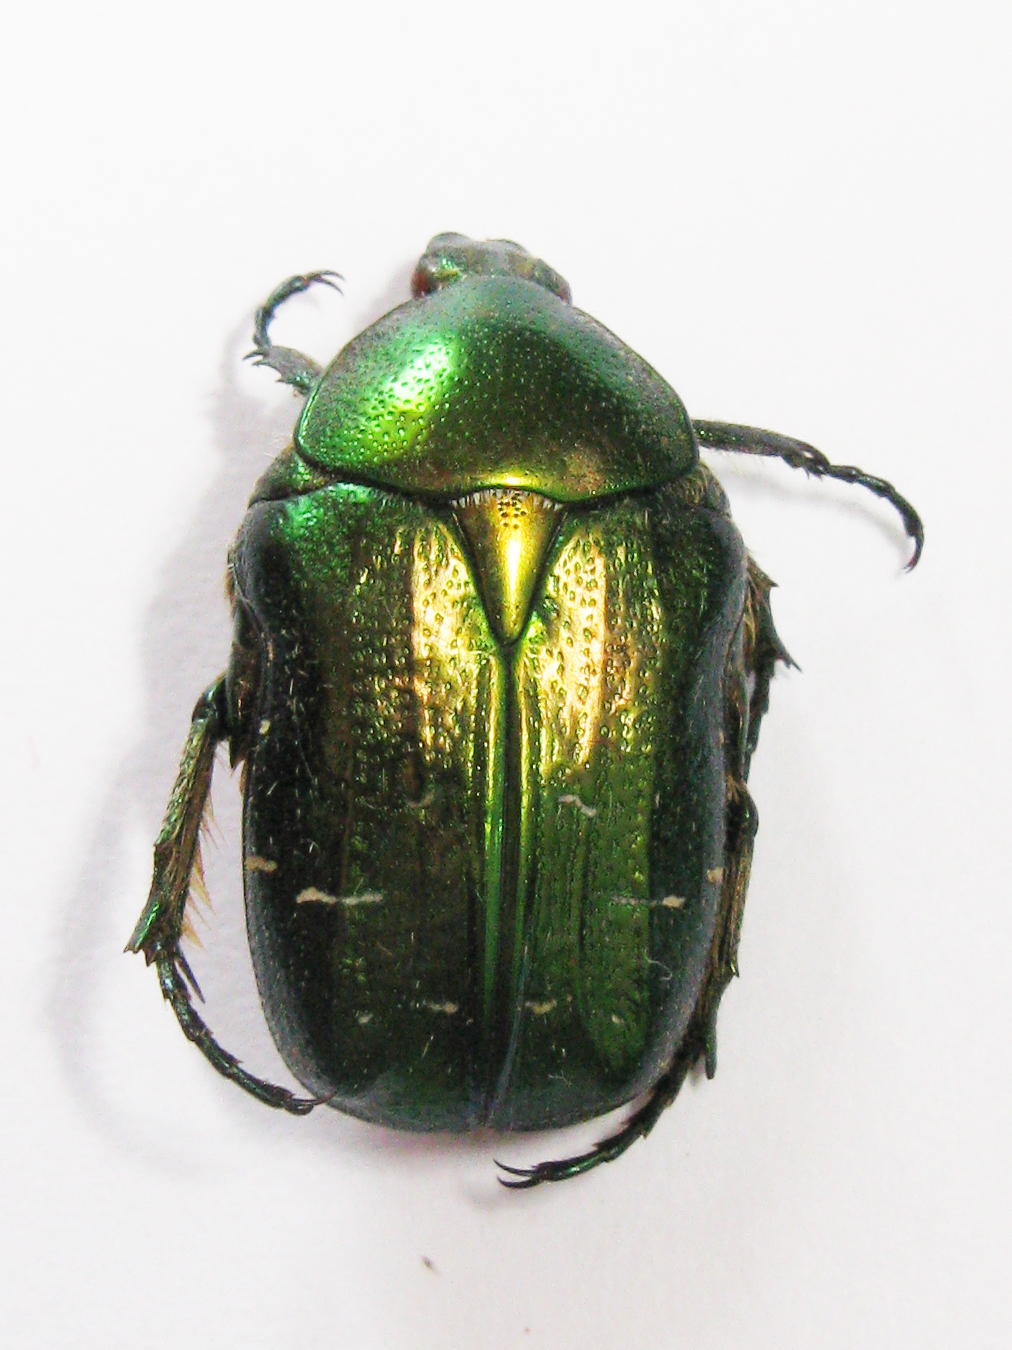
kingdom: Animalia
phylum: Arthropoda
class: Insecta
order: Coleoptera
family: Scarabaeidae
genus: Cetonia
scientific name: Cetonia aurata
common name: Rose chafer
